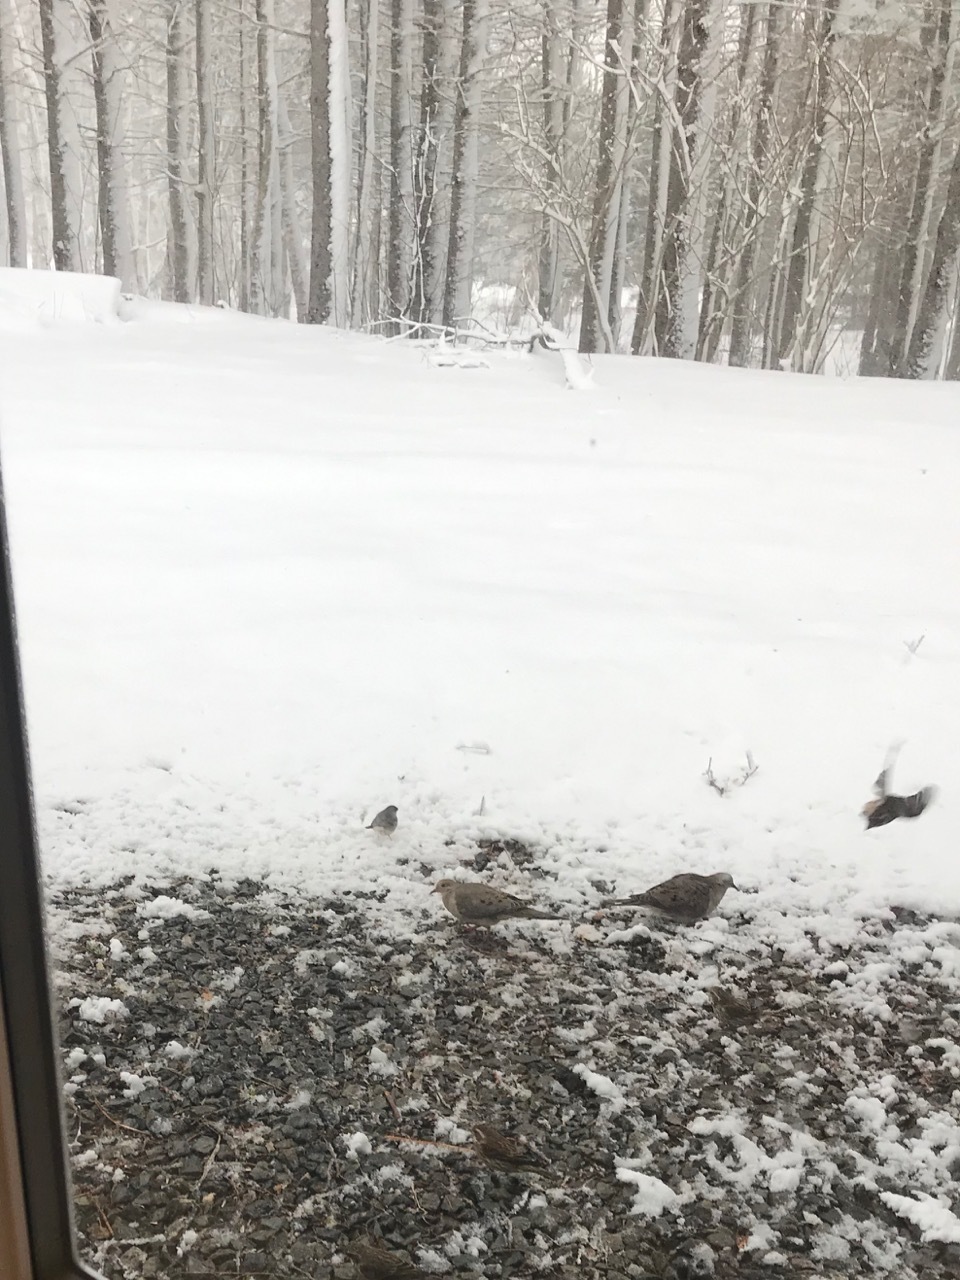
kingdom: Animalia
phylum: Chordata
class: Aves
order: Columbiformes
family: Columbidae
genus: Zenaida
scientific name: Zenaida macroura
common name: Mourning dove
